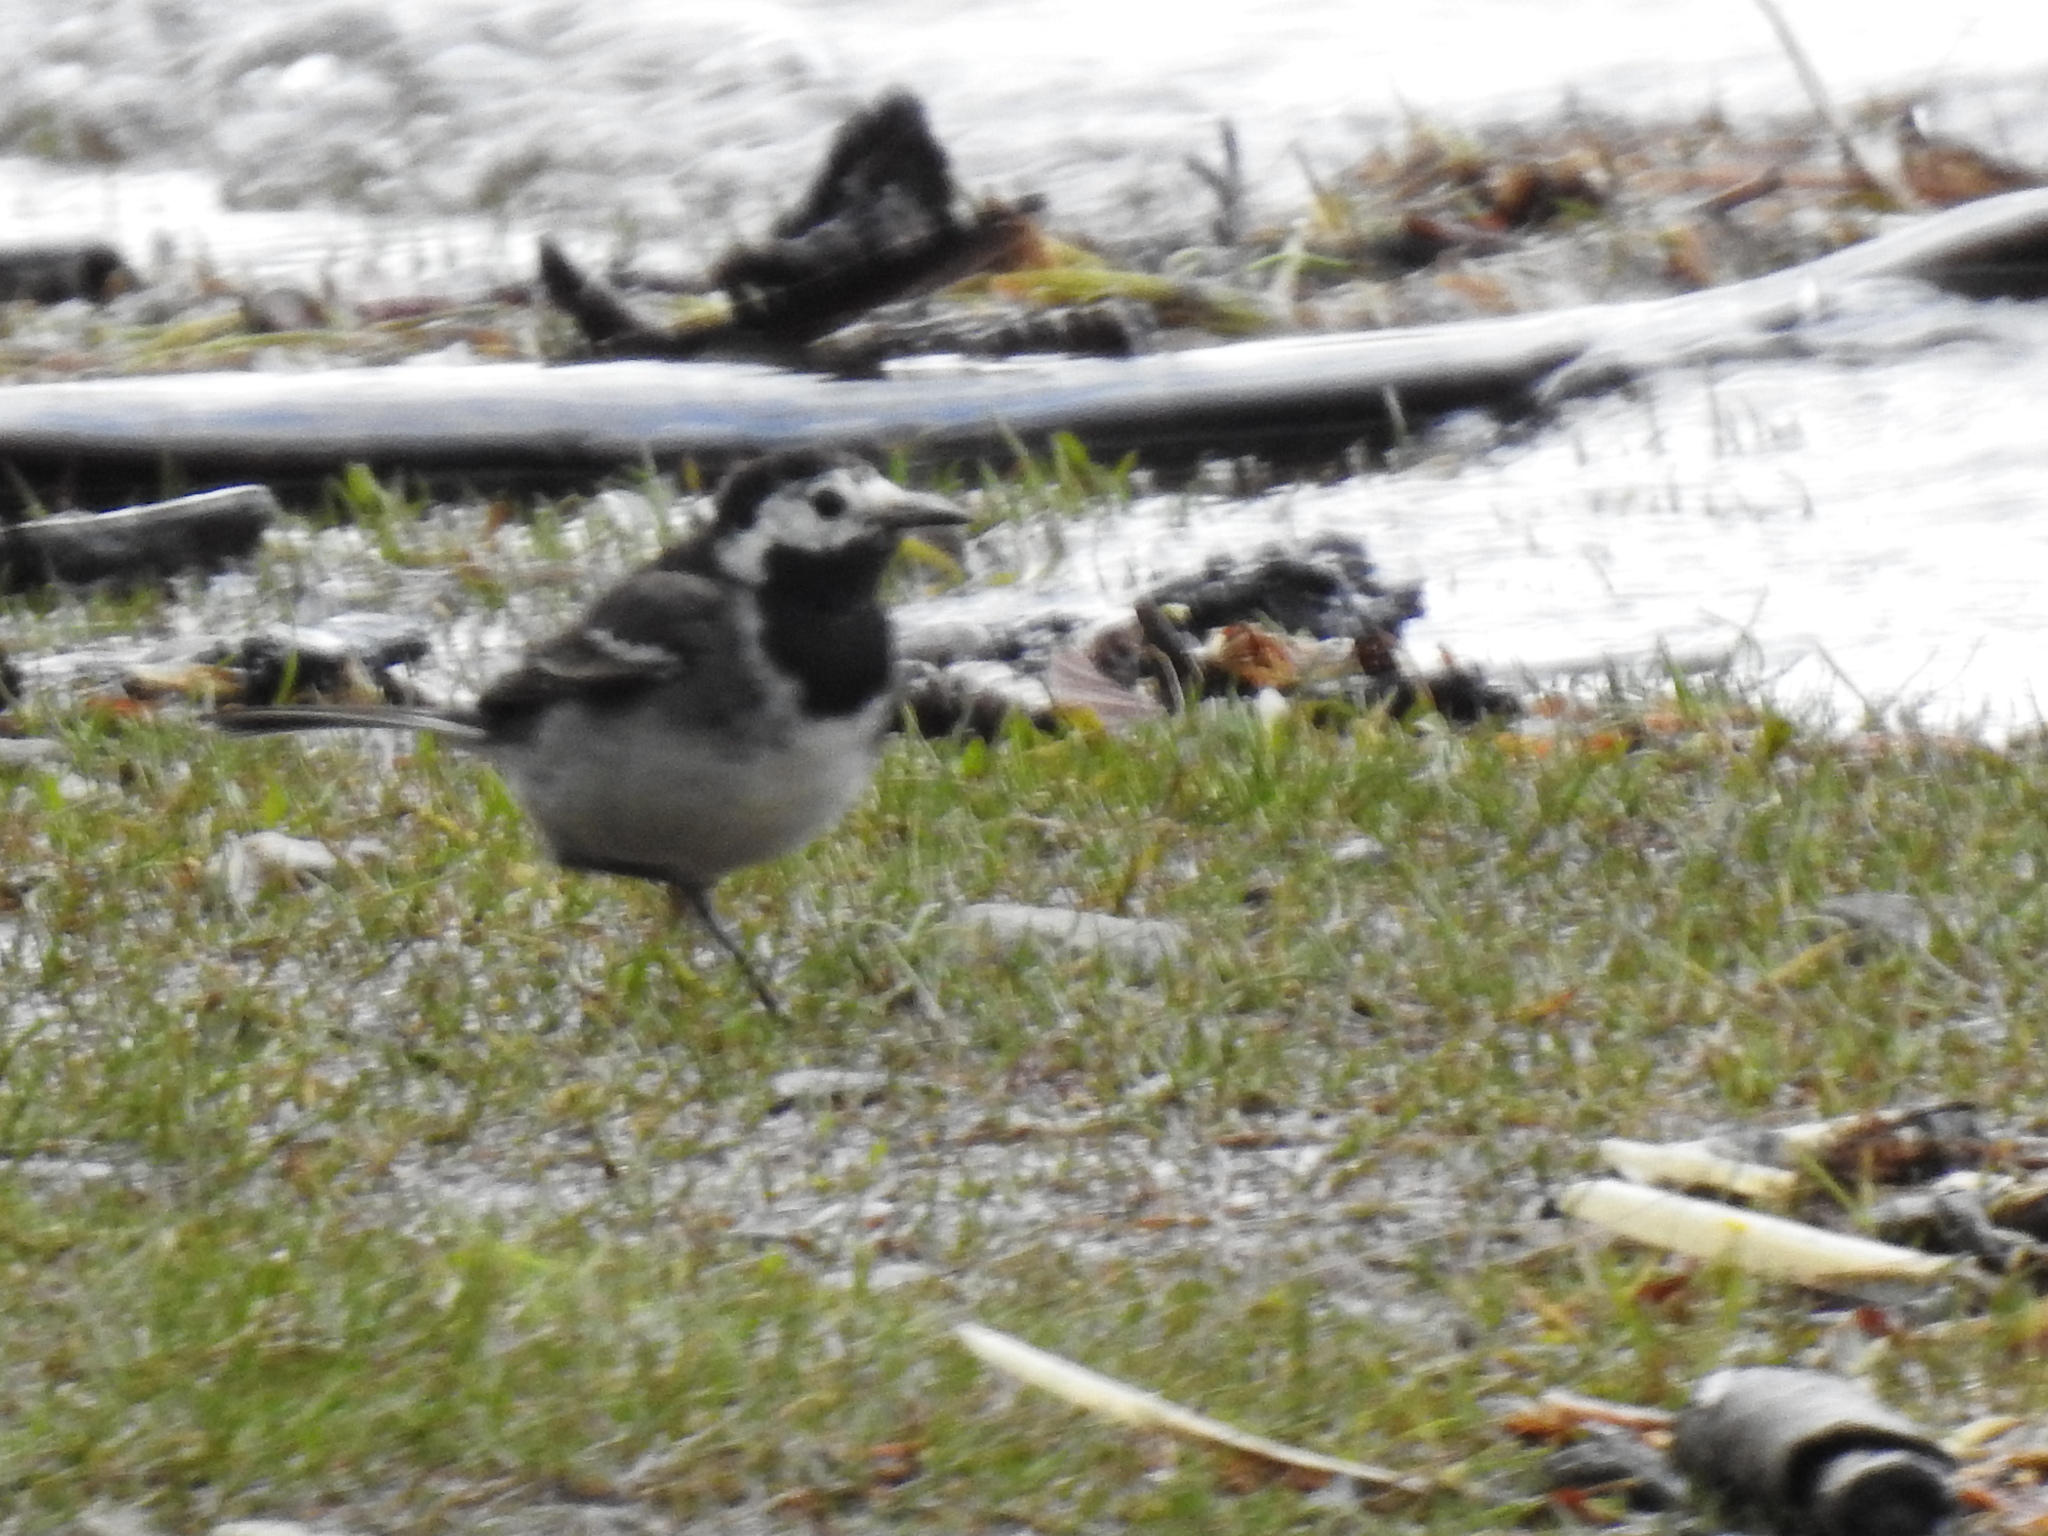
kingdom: Animalia
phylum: Chordata
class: Aves
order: Passeriformes
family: Motacillidae
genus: Motacilla
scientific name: Motacilla alba
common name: White wagtail
